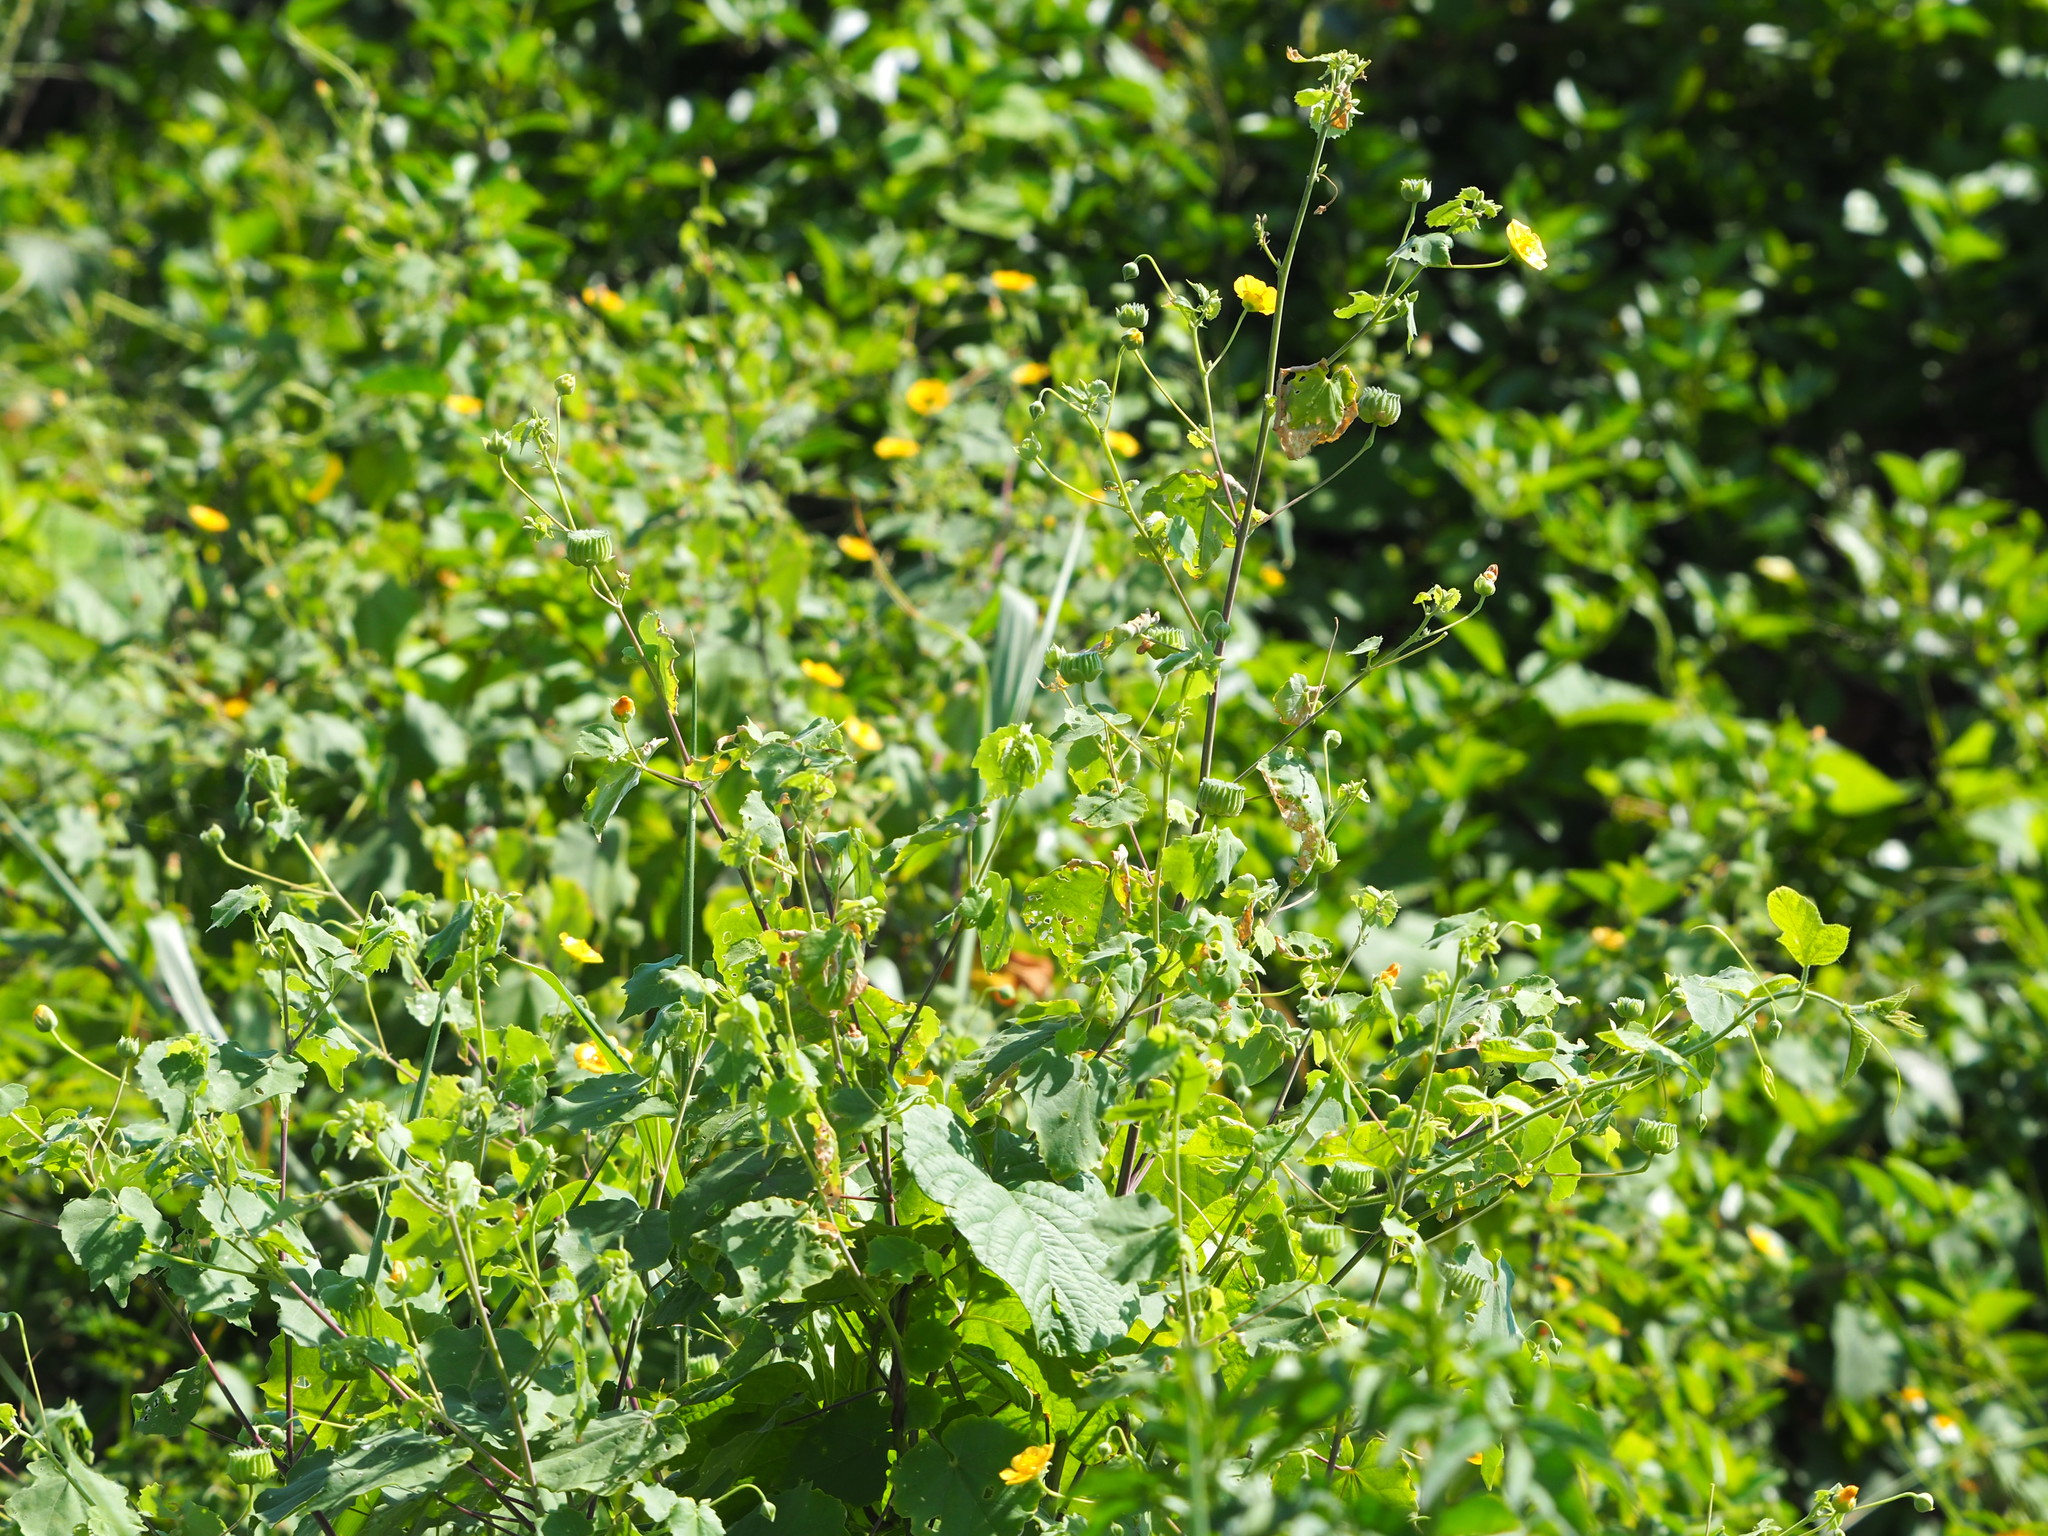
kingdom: Plantae
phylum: Tracheophyta
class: Magnoliopsida
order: Malvales
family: Malvaceae
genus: Abutilon
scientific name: Abutilon indicum
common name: Indian abutilon
